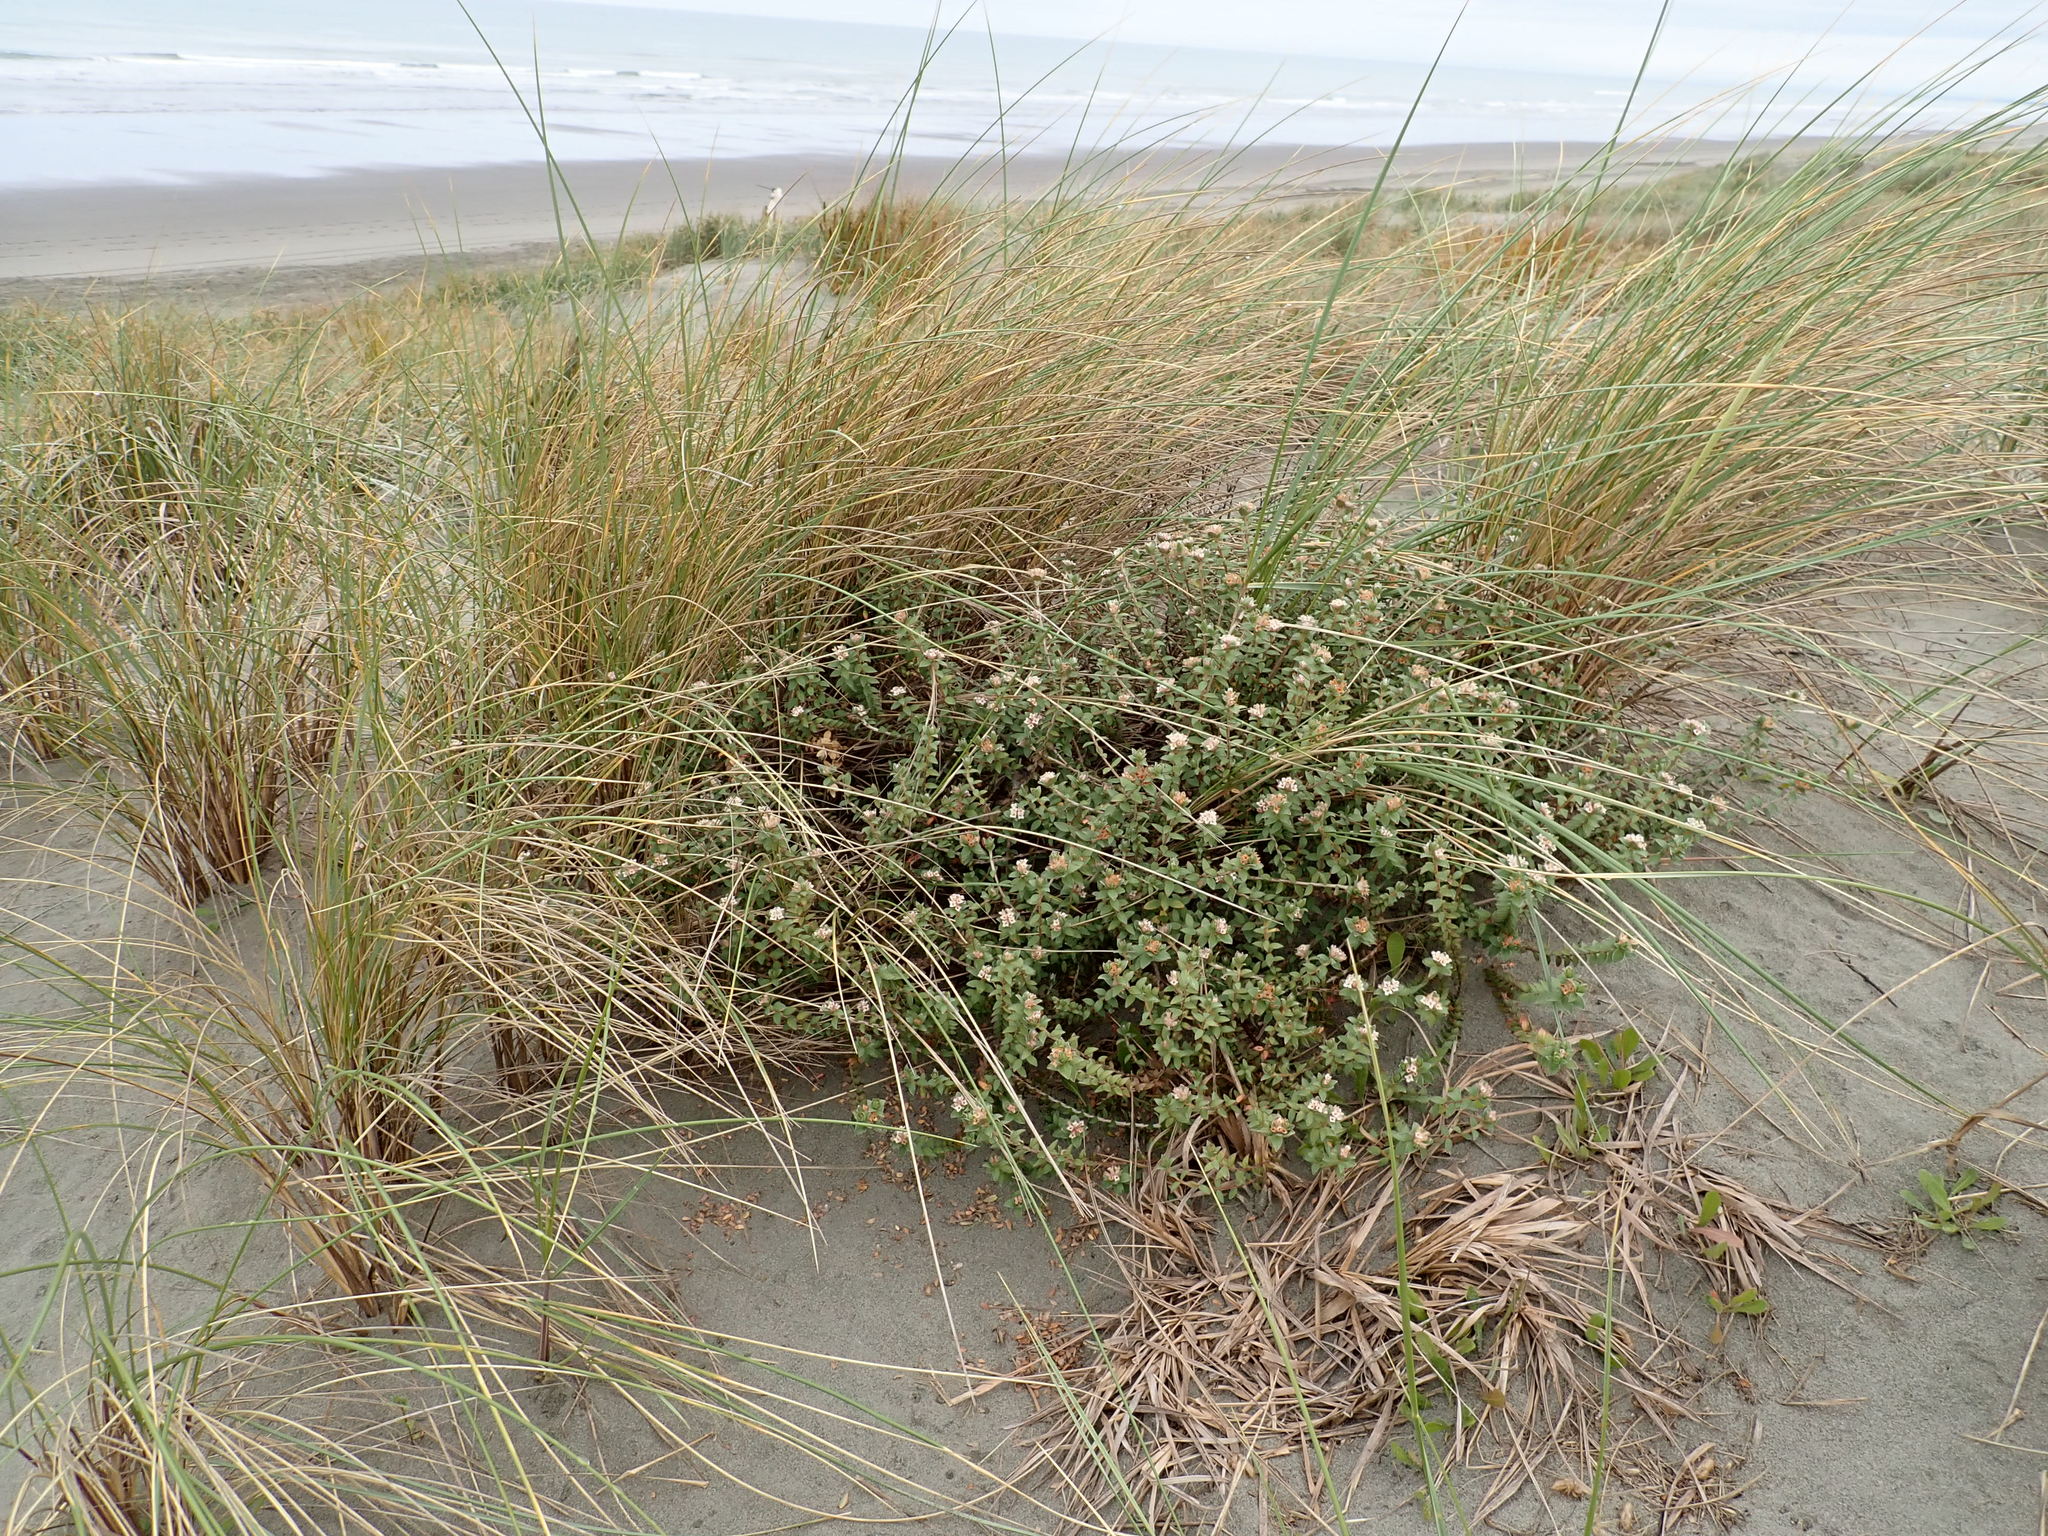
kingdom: Plantae
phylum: Tracheophyta
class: Magnoliopsida
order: Malvales
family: Thymelaeaceae
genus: Pimelea
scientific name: Pimelea villosa
